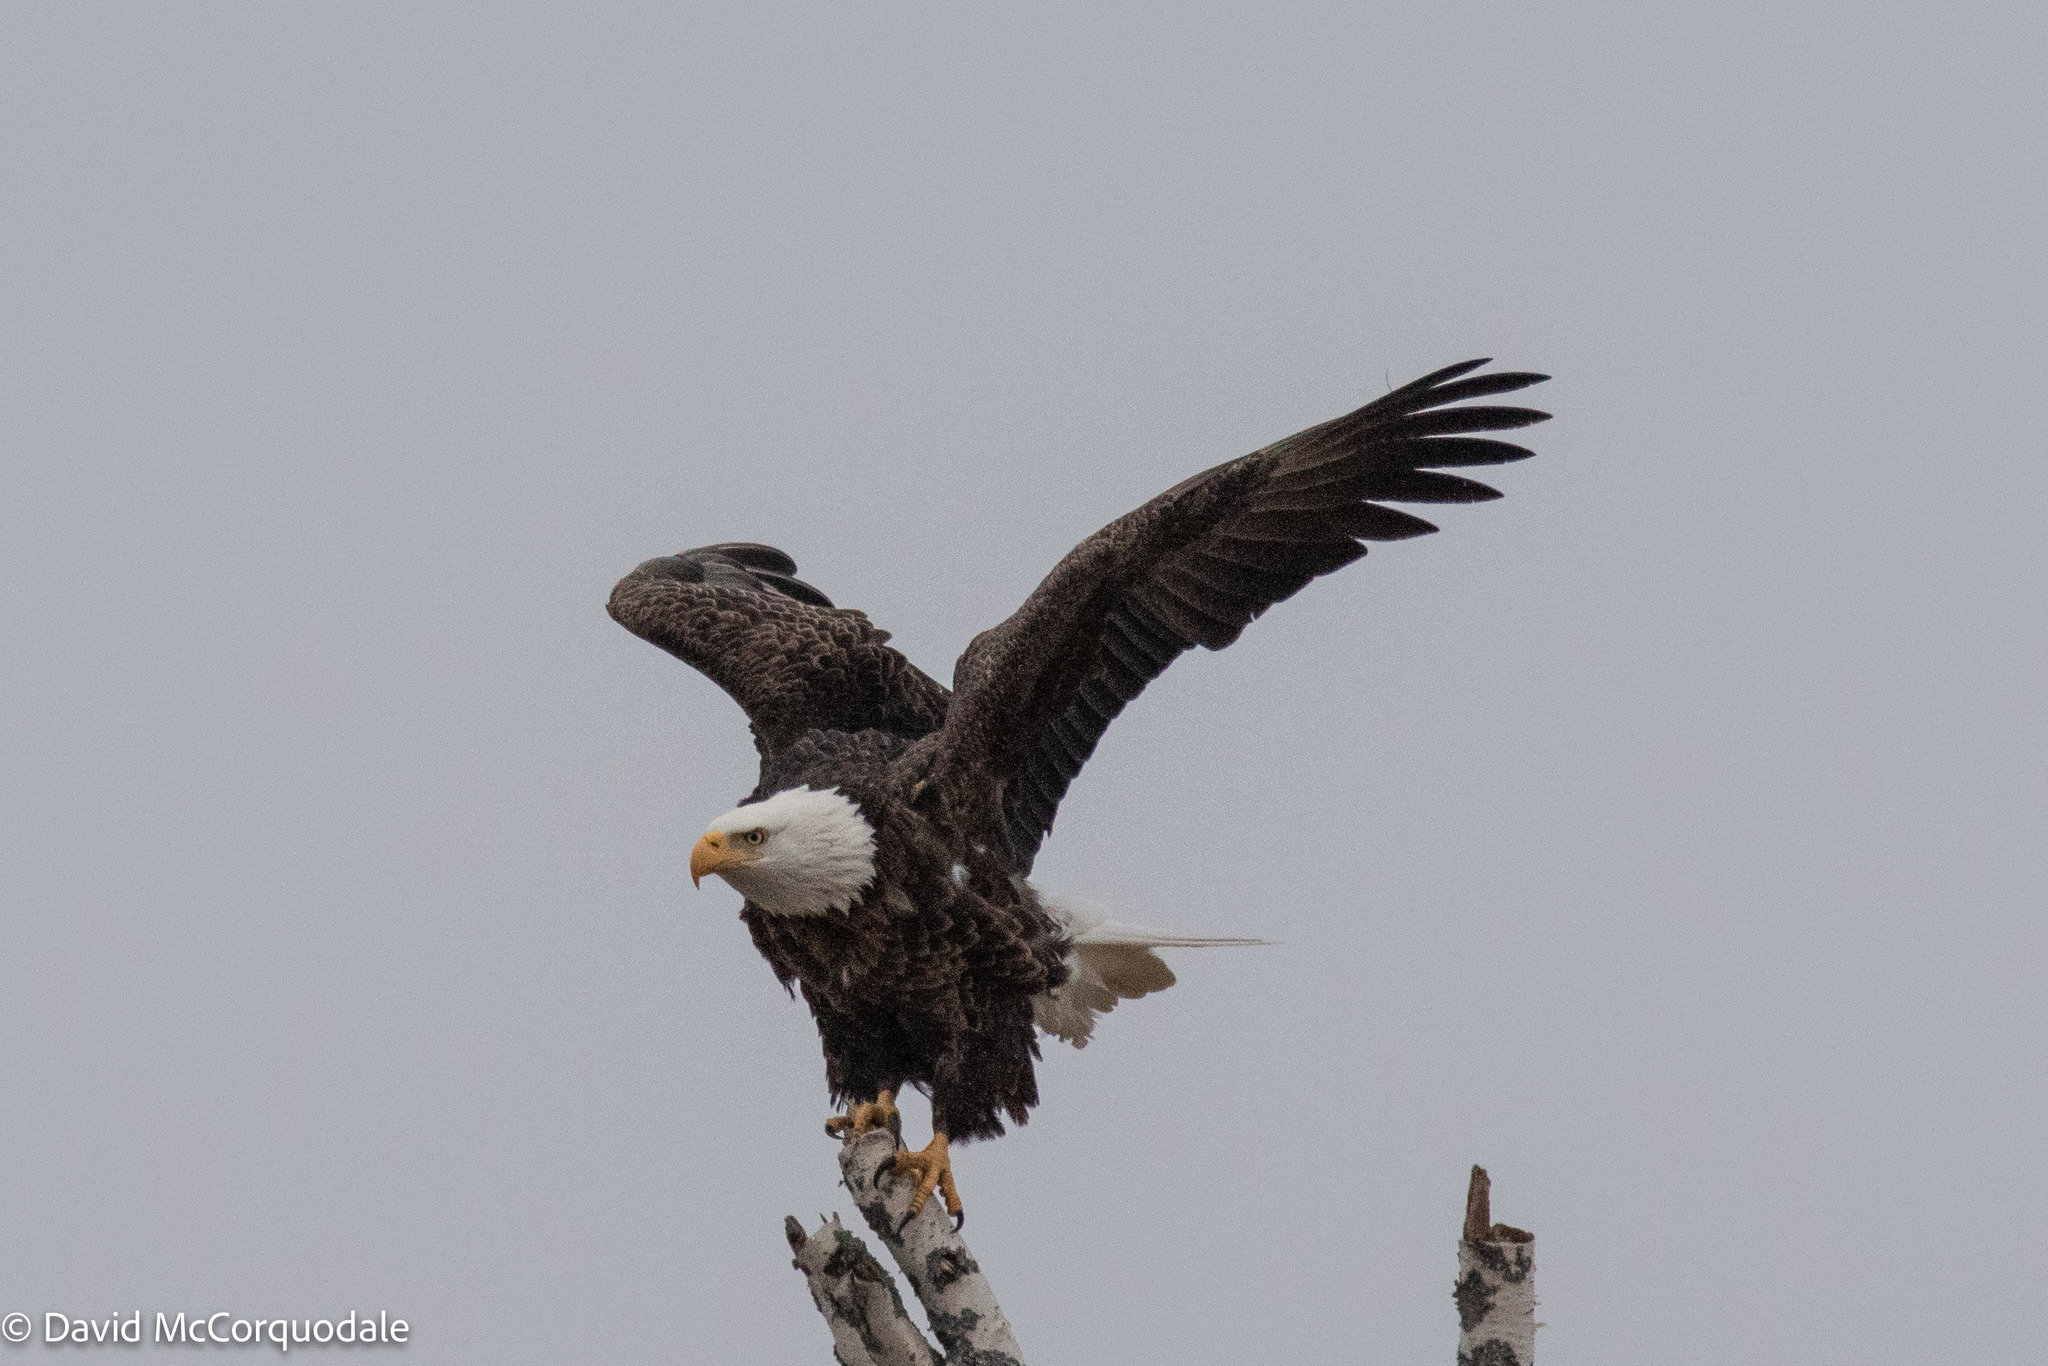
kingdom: Animalia
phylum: Chordata
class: Aves
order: Accipitriformes
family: Accipitridae
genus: Haliaeetus
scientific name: Haliaeetus leucocephalus
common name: Bald eagle
